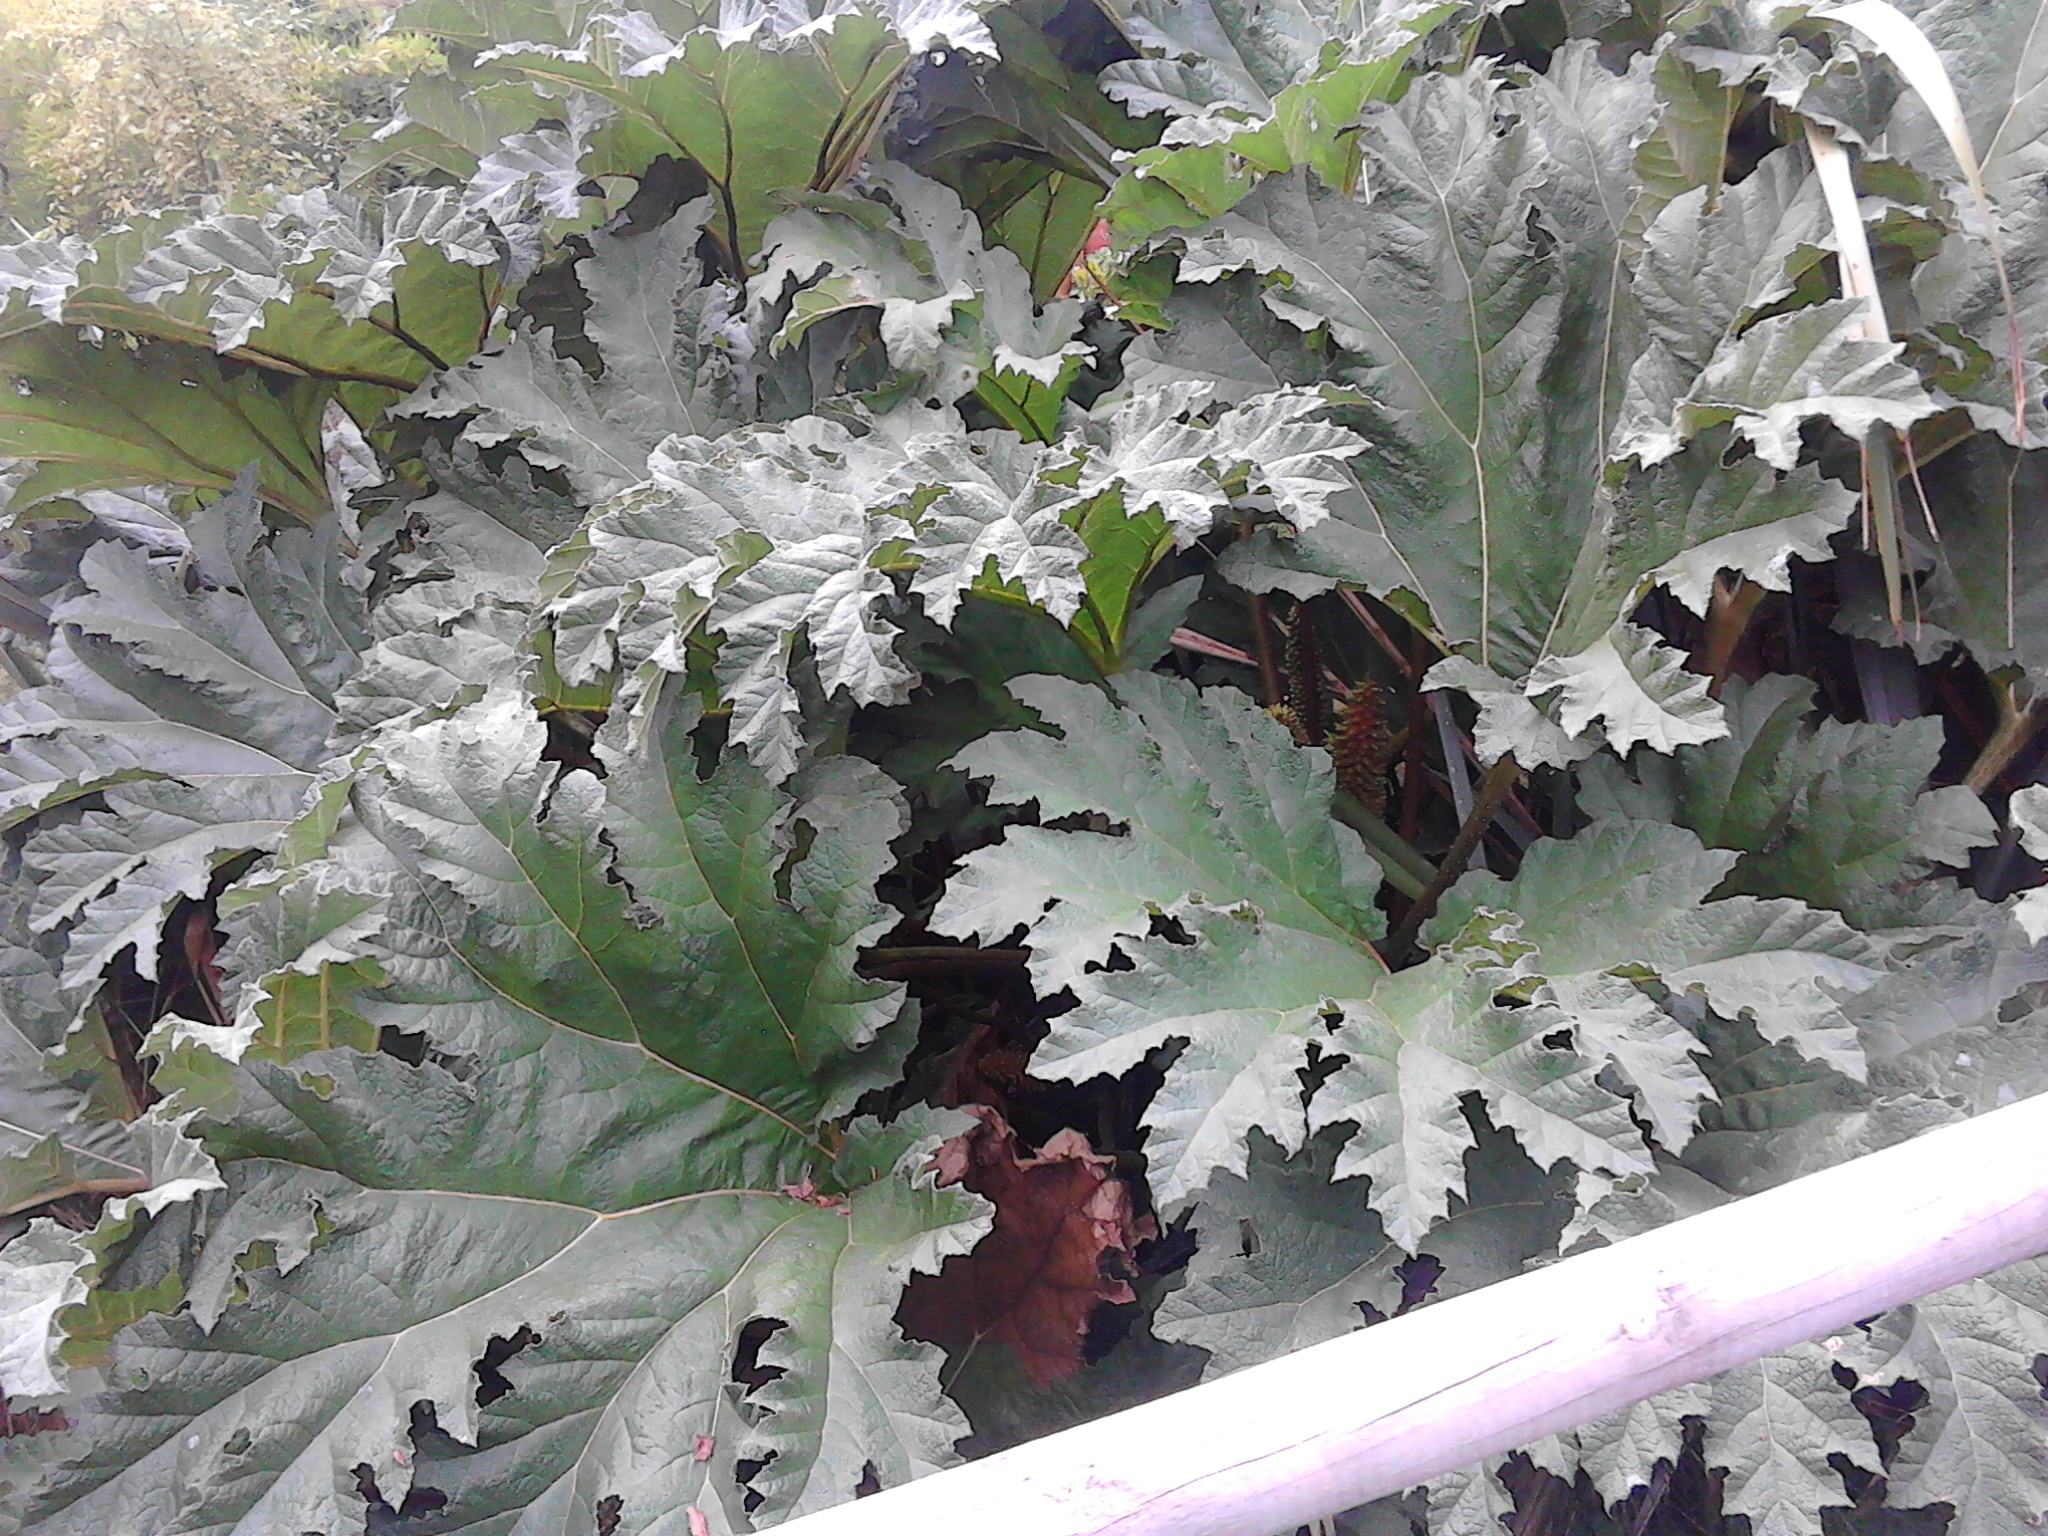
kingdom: Plantae
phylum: Tracheophyta
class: Magnoliopsida
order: Gunnerales
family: Gunneraceae
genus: Gunnera
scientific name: Gunnera tinctoria
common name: Giant-rhubarb
